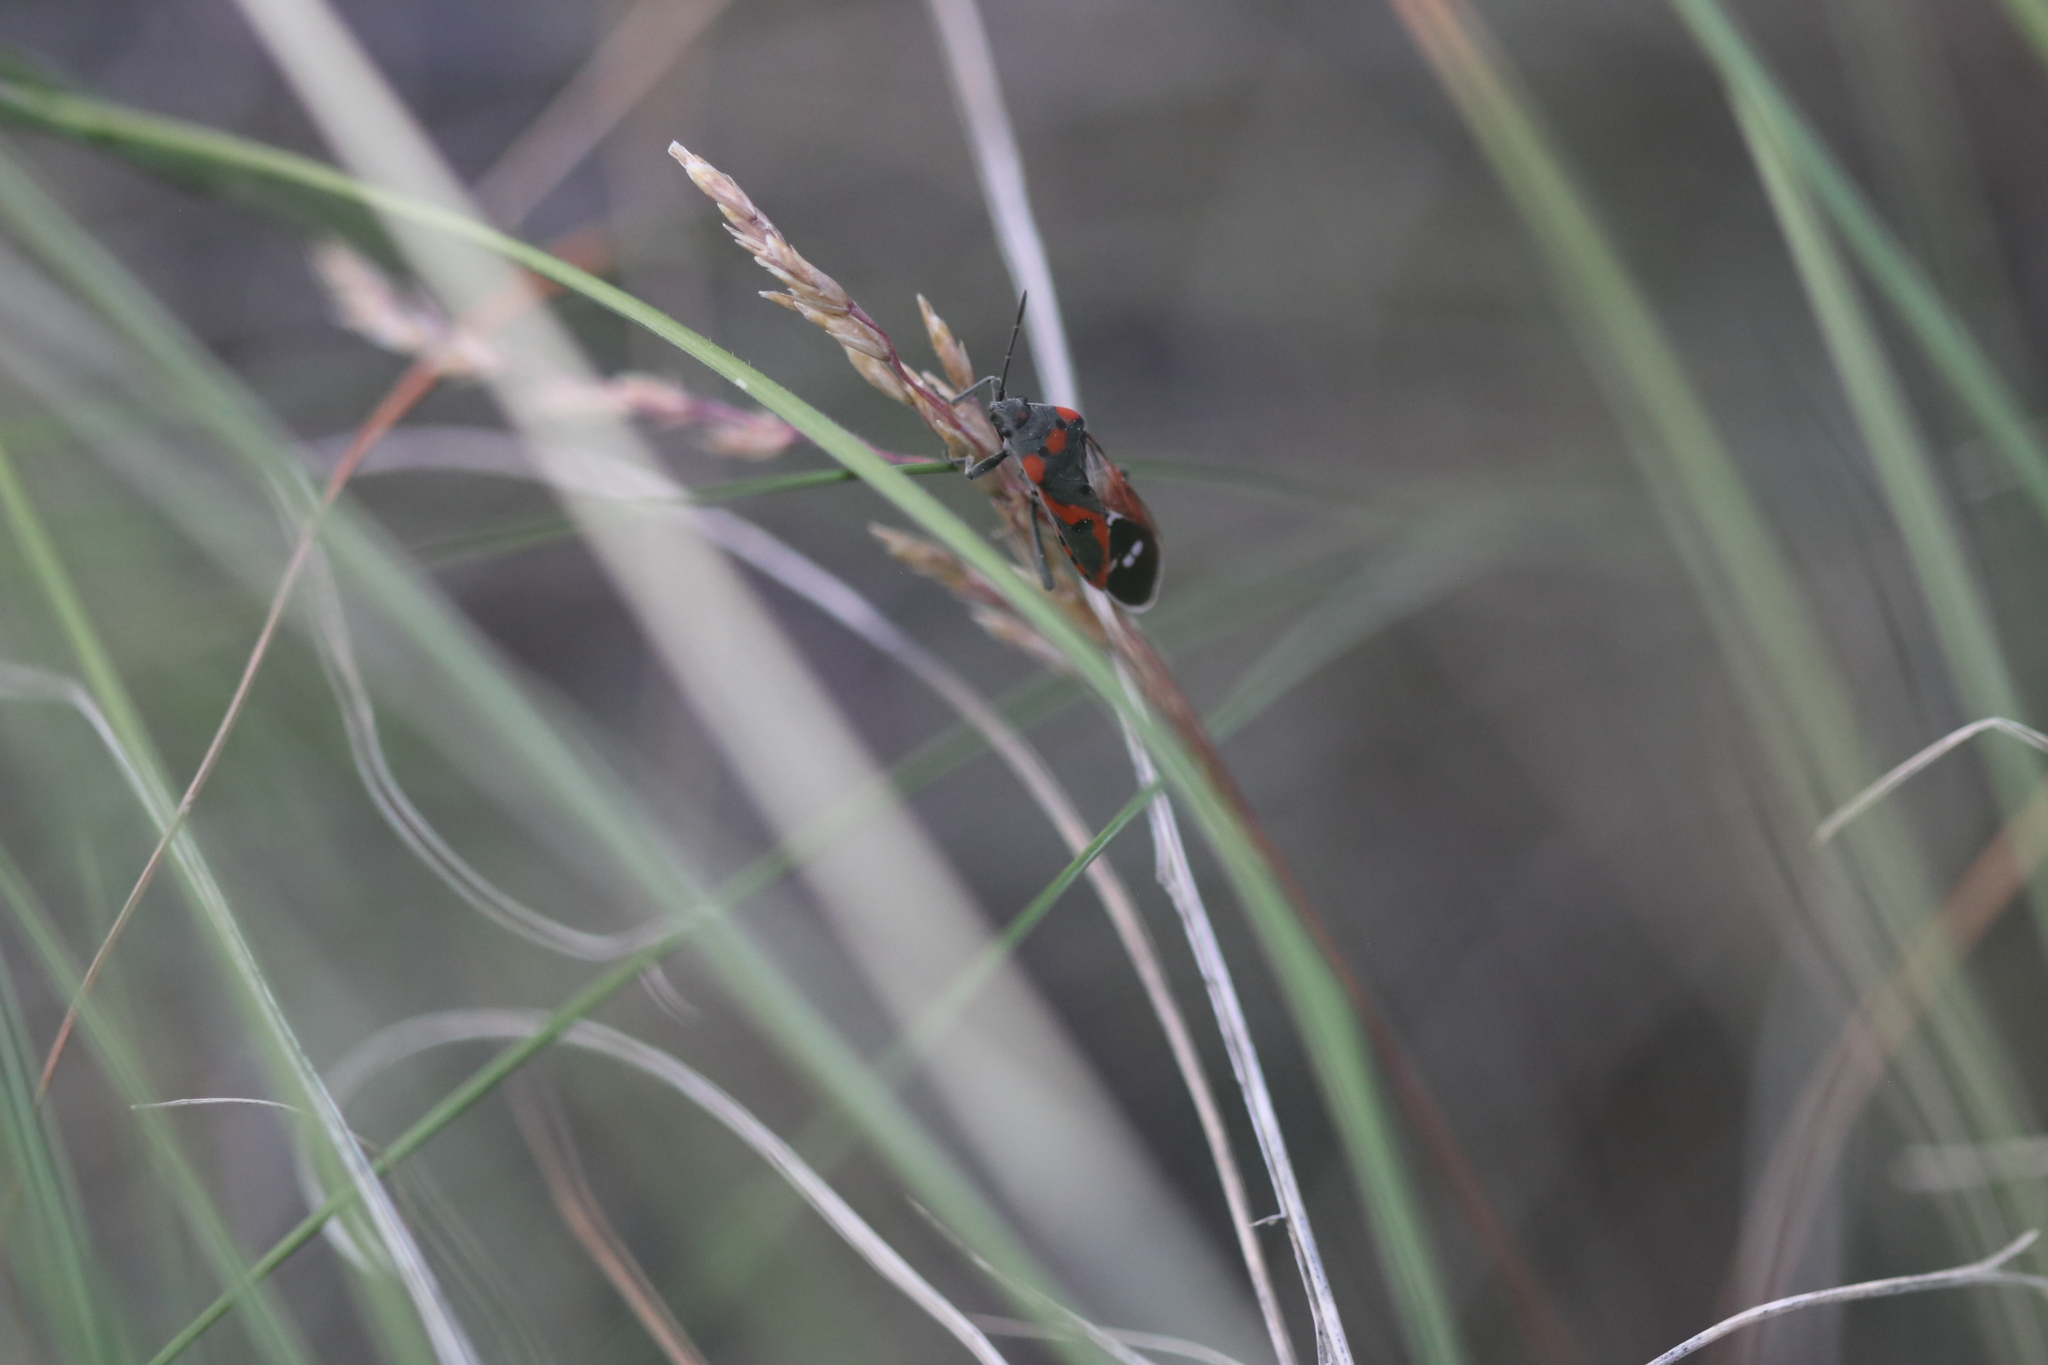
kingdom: Animalia
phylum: Arthropoda
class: Insecta
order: Hemiptera
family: Lygaeidae
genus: Lygaeus
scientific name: Lygaeus kalmii
